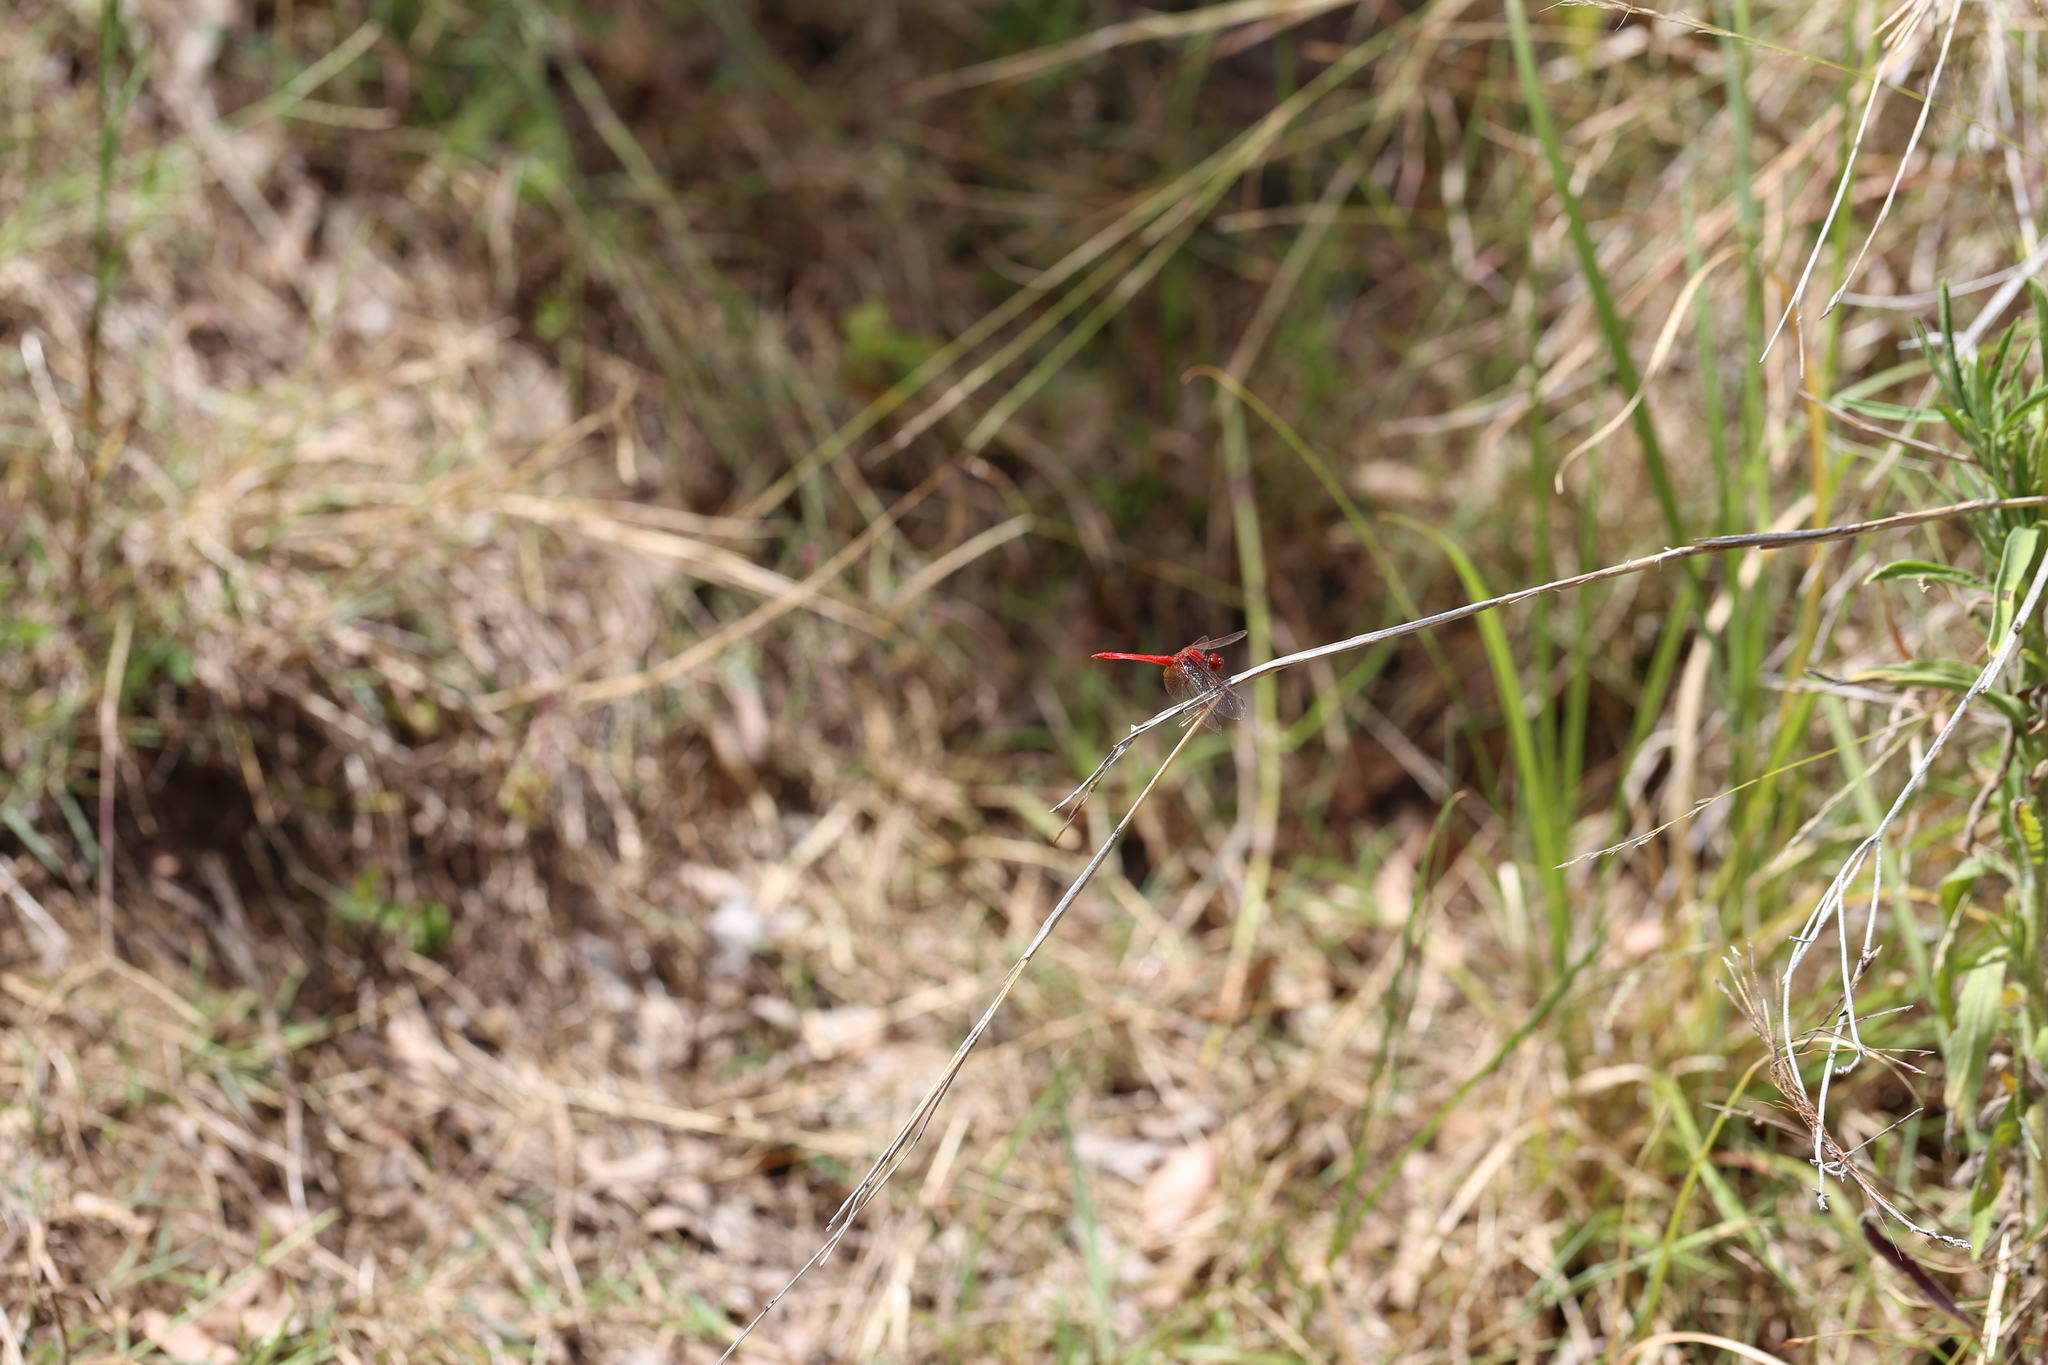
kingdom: Animalia
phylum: Arthropoda
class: Insecta
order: Odonata
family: Libellulidae
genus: Diplacodes
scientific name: Diplacodes haematodes
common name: Scarlet percher
